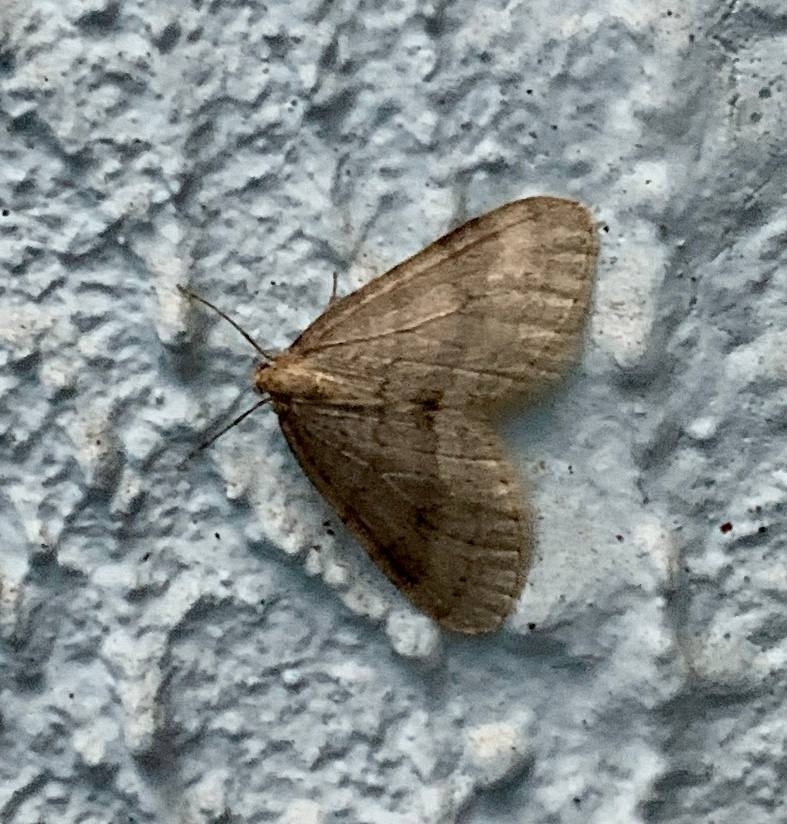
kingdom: Animalia
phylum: Arthropoda
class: Insecta
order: Lepidoptera
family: Geometridae
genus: Operophtera
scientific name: Operophtera brumata
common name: Winter moth
